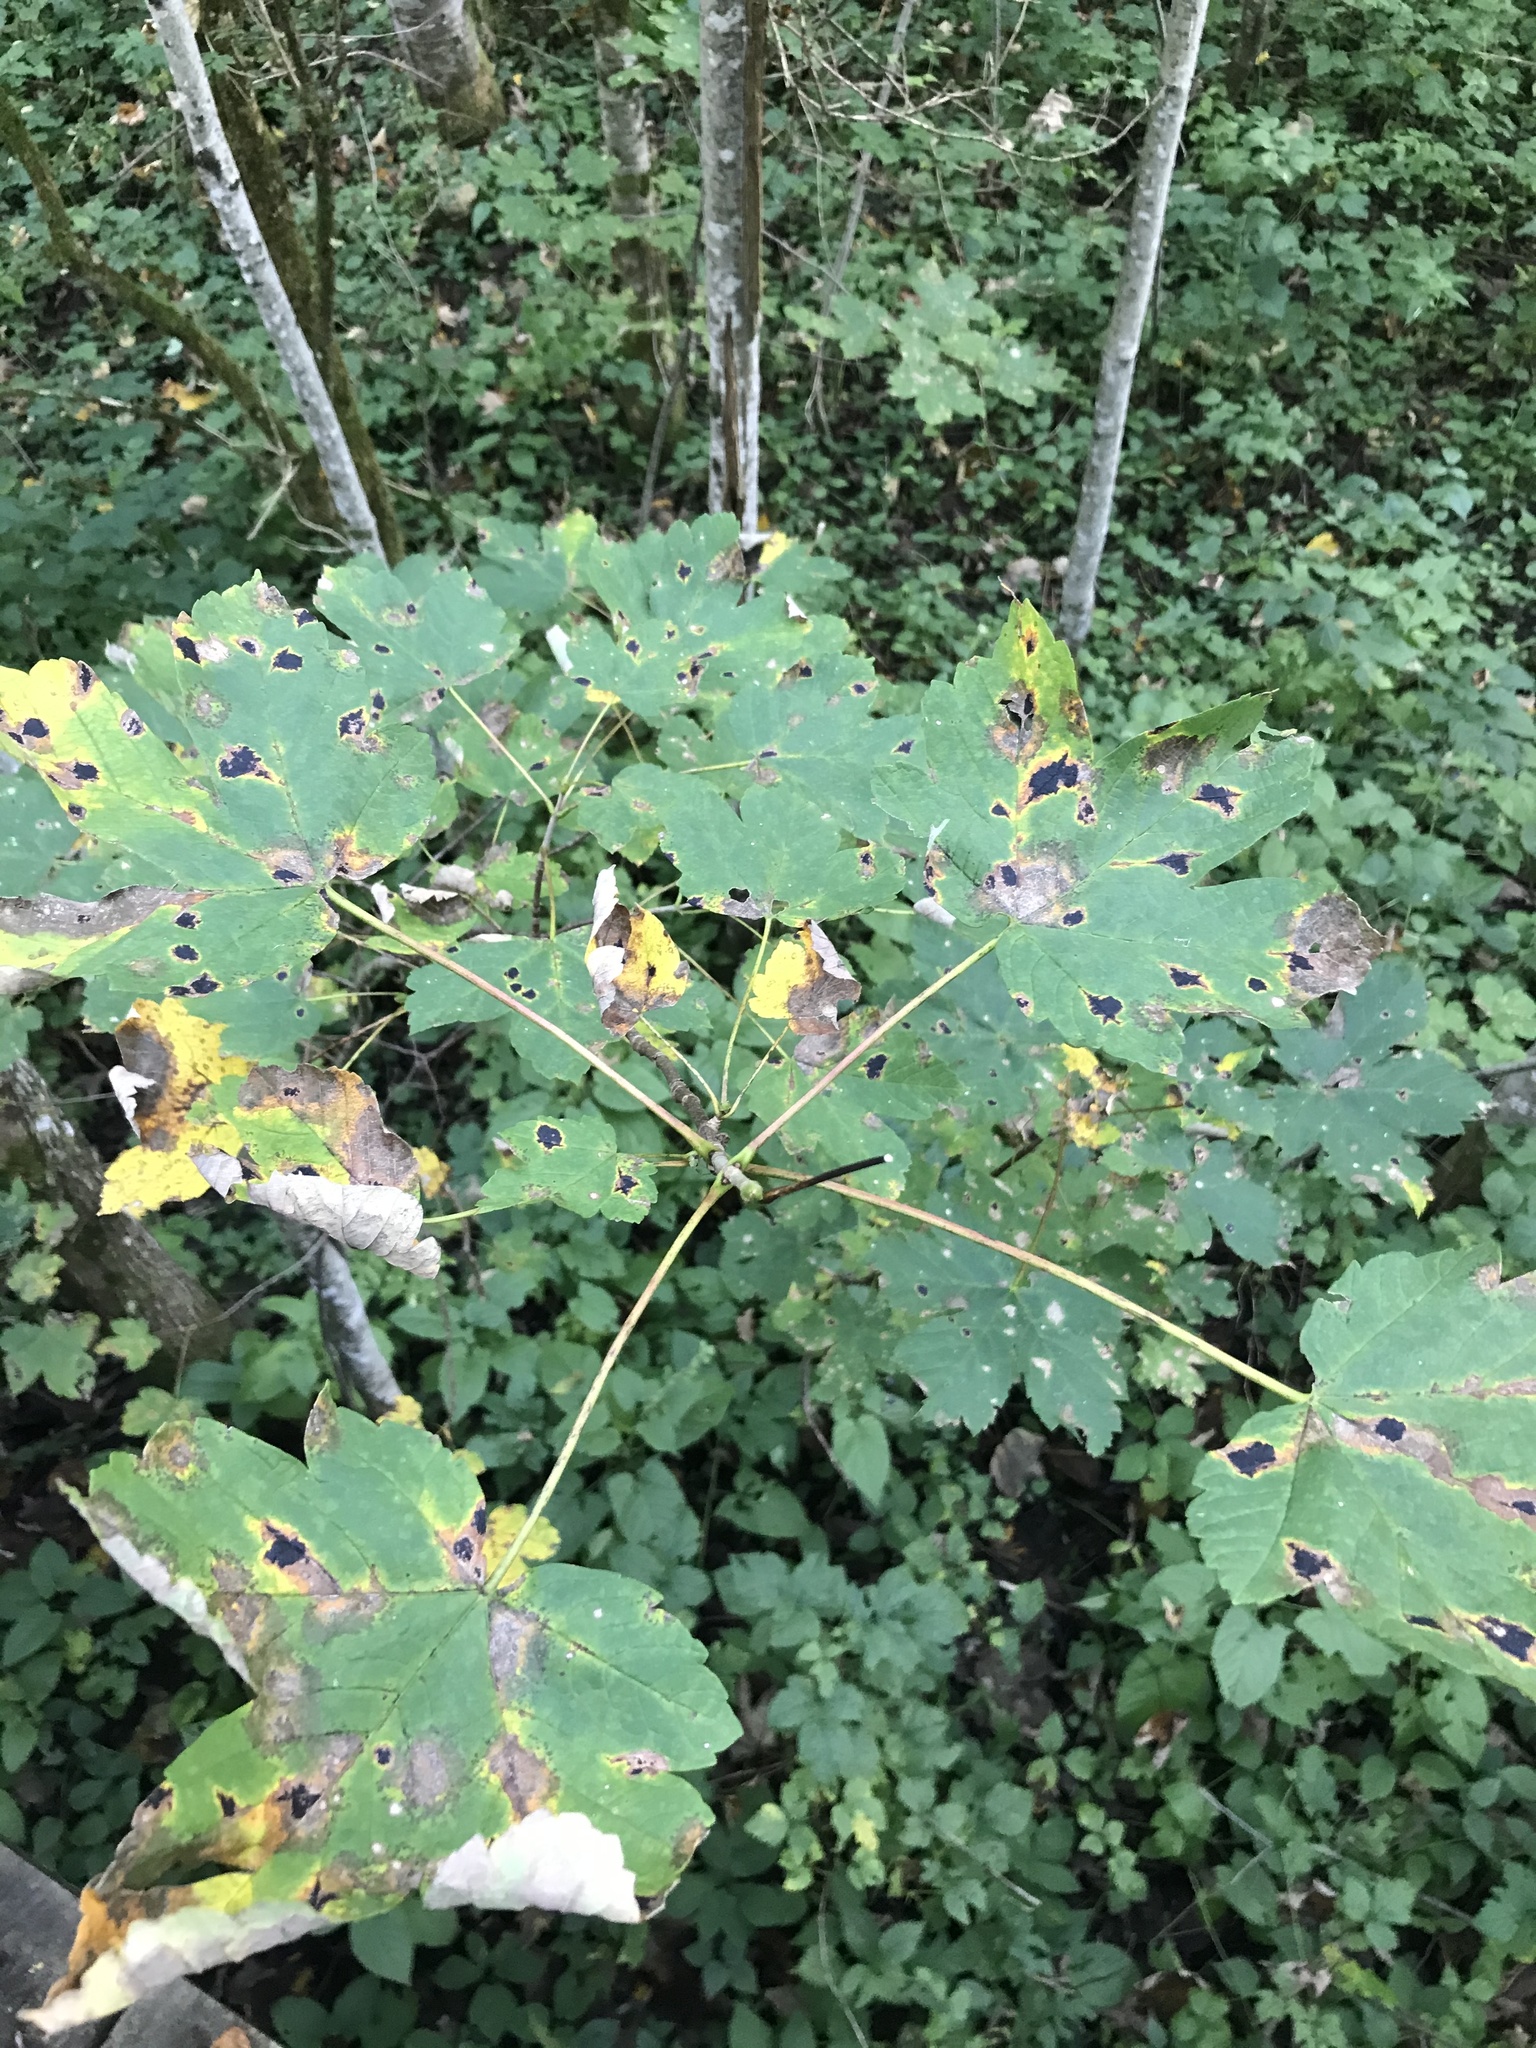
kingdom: Plantae
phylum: Tracheophyta
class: Magnoliopsida
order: Sapindales
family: Sapindaceae
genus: Acer
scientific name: Acer pseudoplatanus
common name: Sycamore
